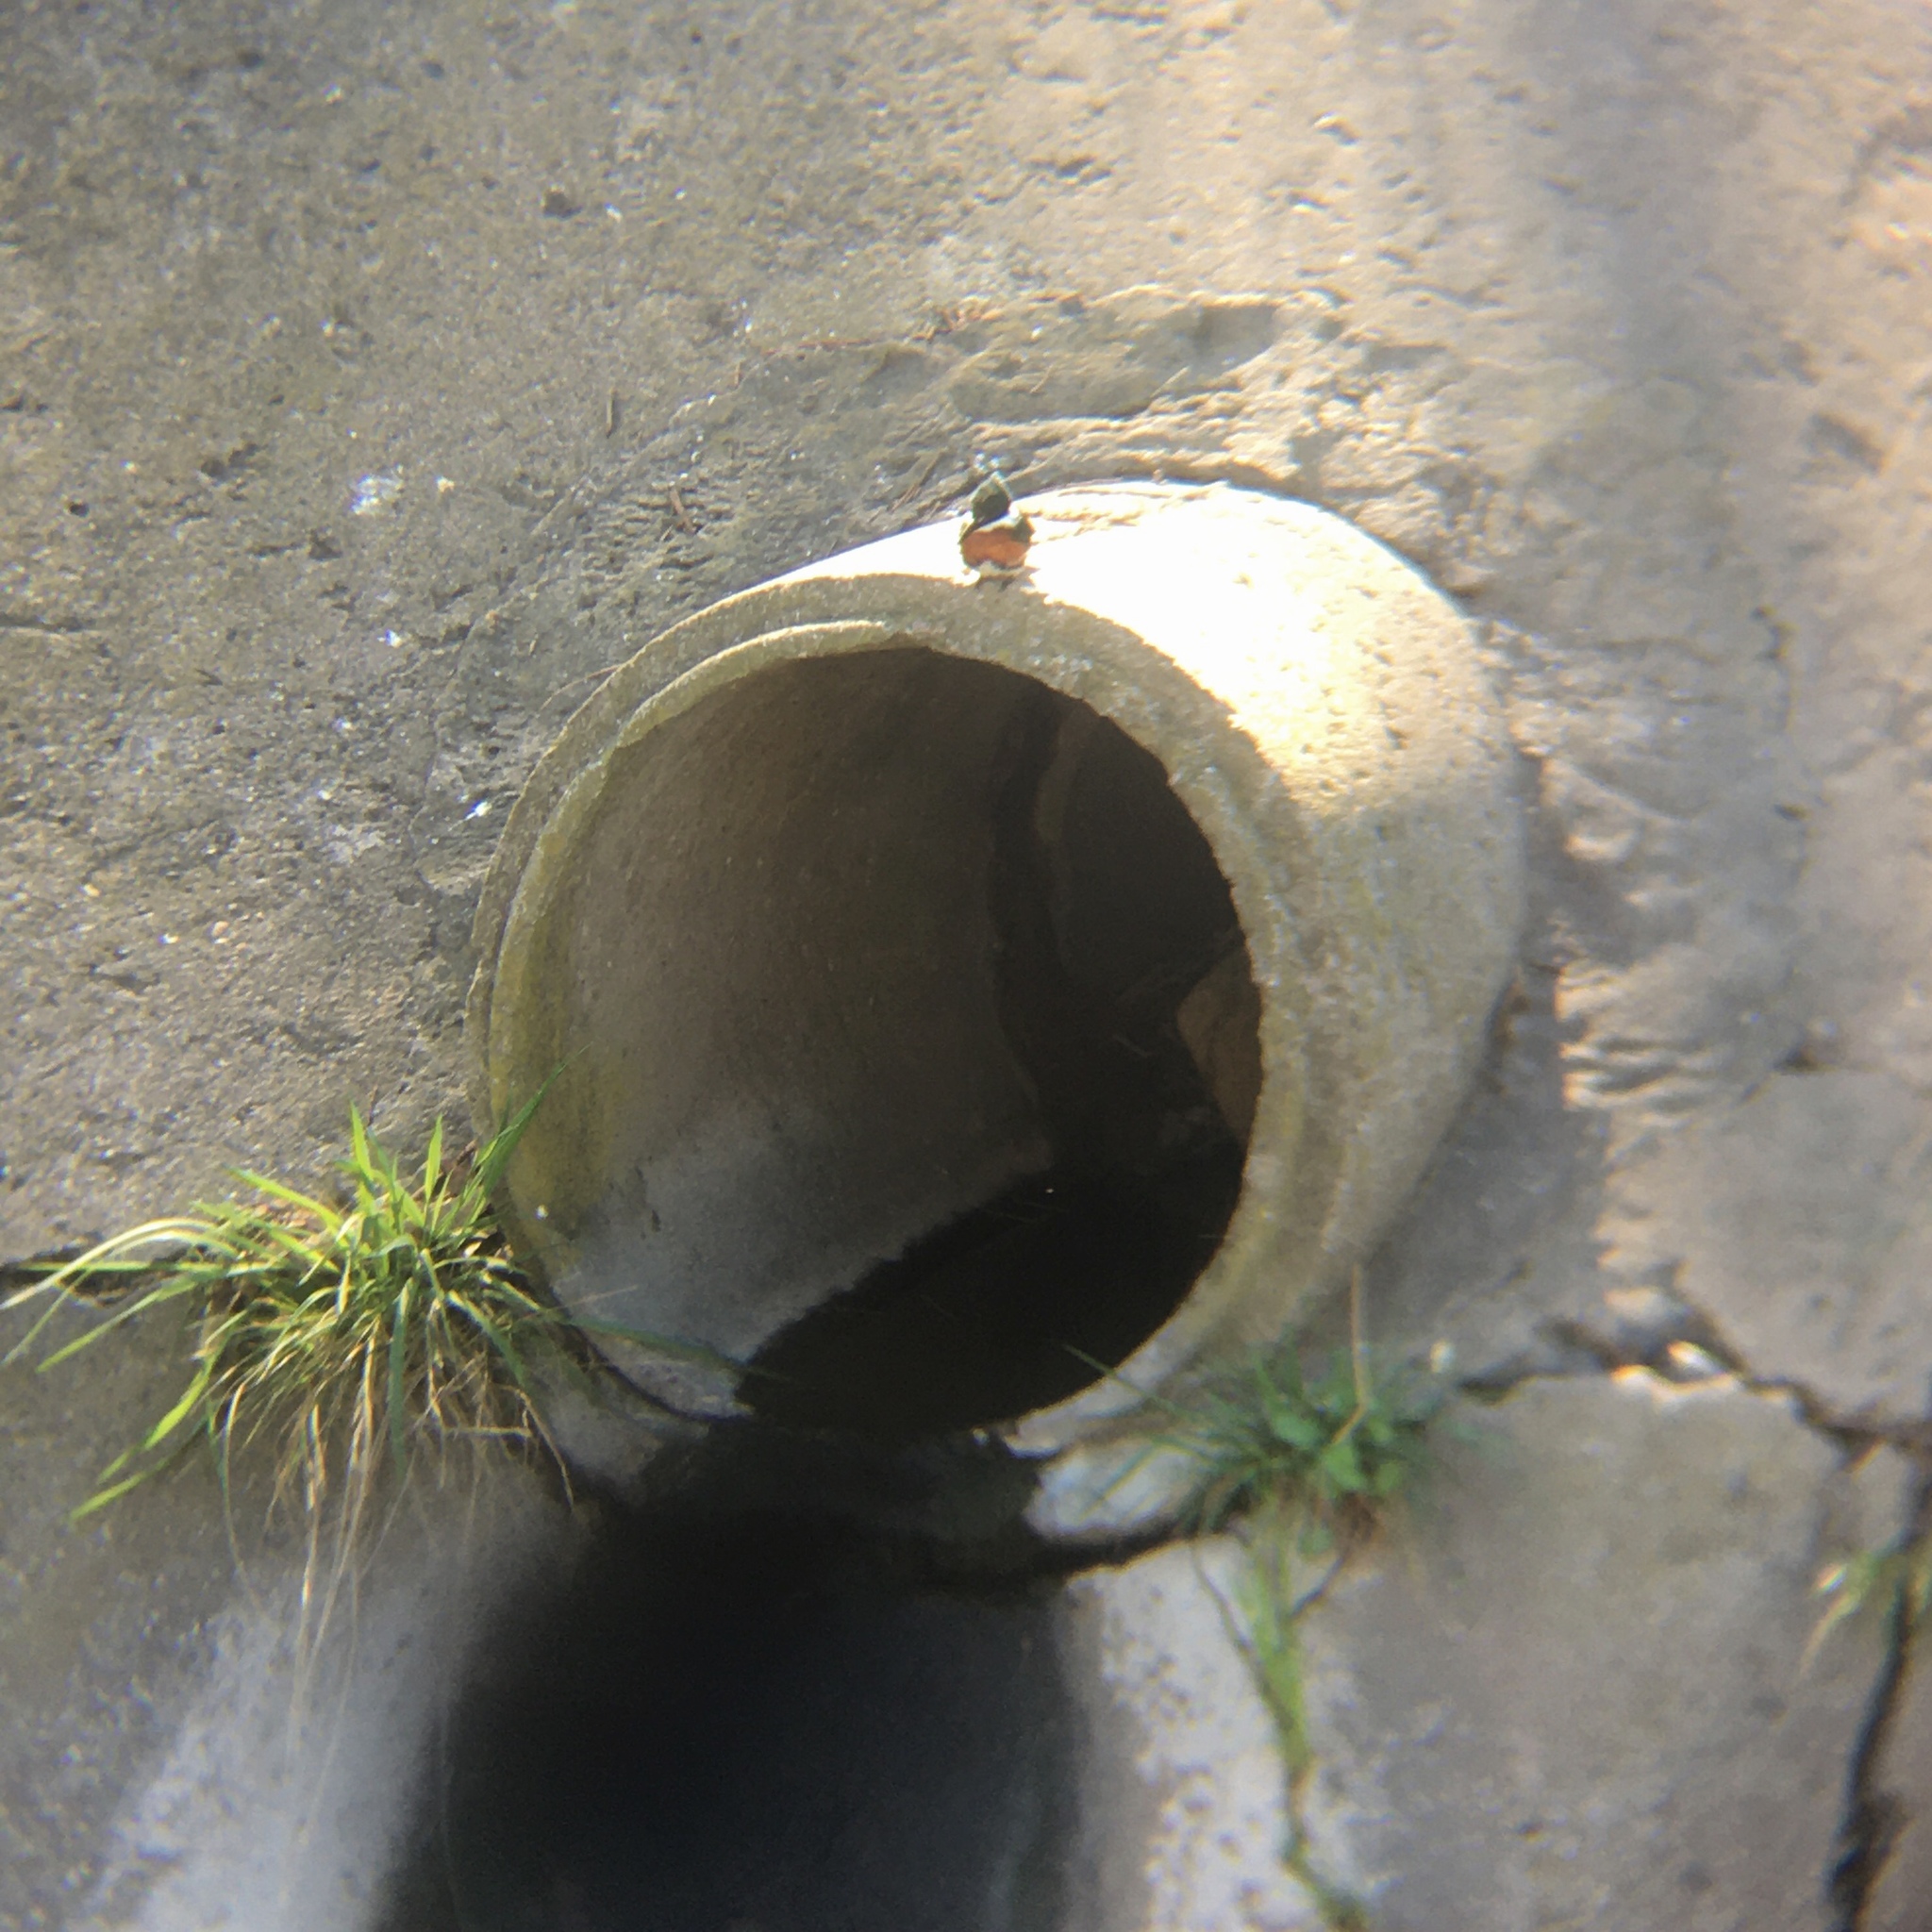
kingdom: Animalia
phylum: Chordata
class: Aves
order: Coraciiformes
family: Alcedinidae
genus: Chloroceryle
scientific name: Chloroceryle americana
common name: Green kingfisher
